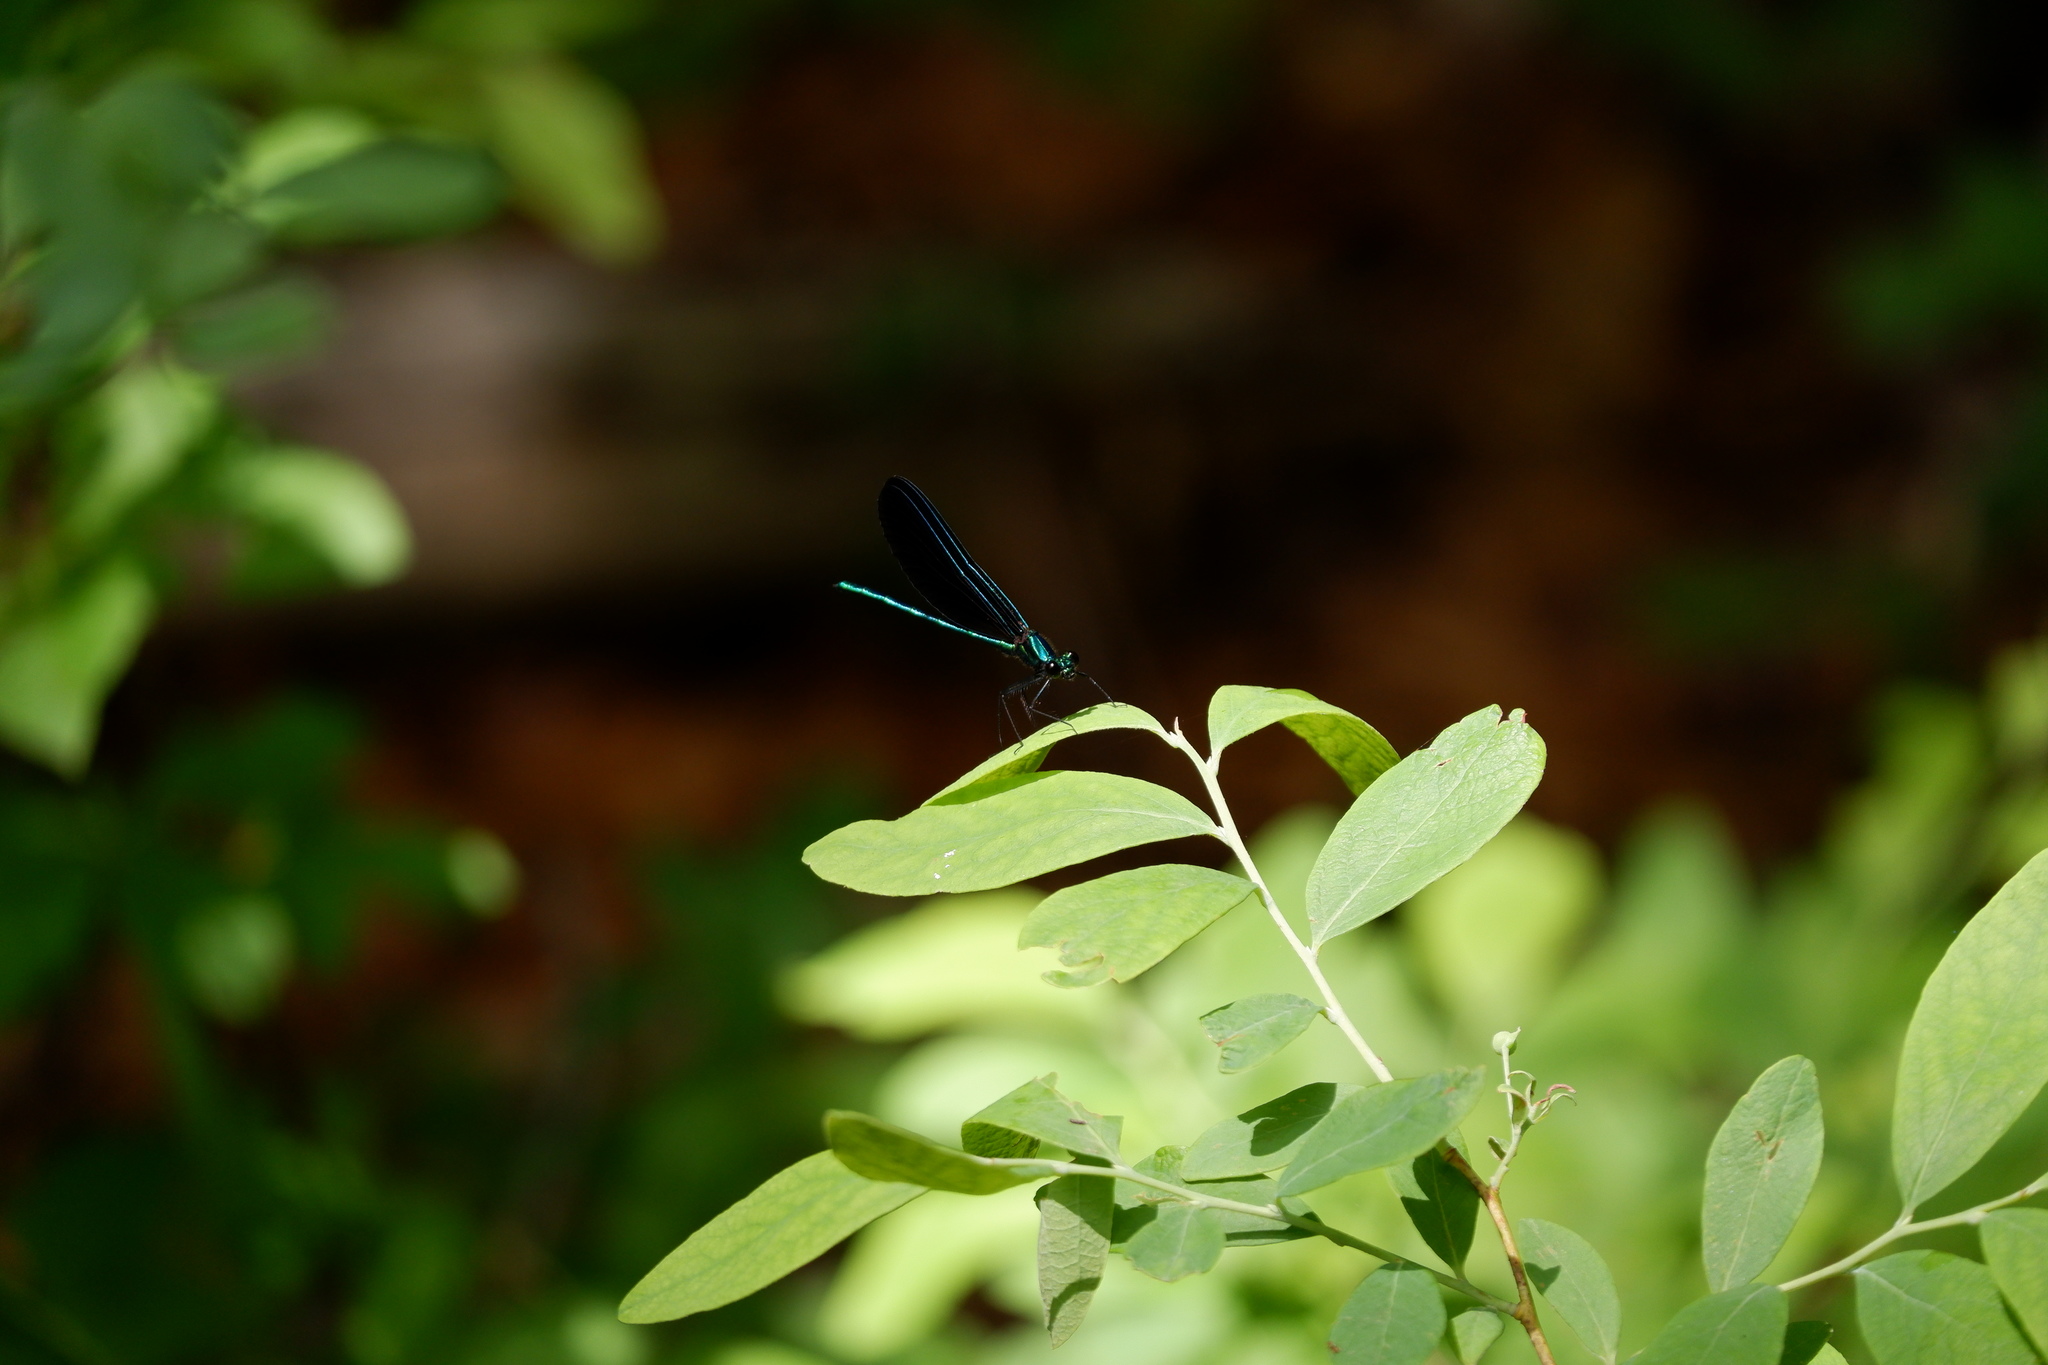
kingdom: Animalia
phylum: Arthropoda
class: Insecta
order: Odonata
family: Calopterygidae
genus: Calopteryx
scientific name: Calopteryx maculata
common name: Ebony jewelwing
